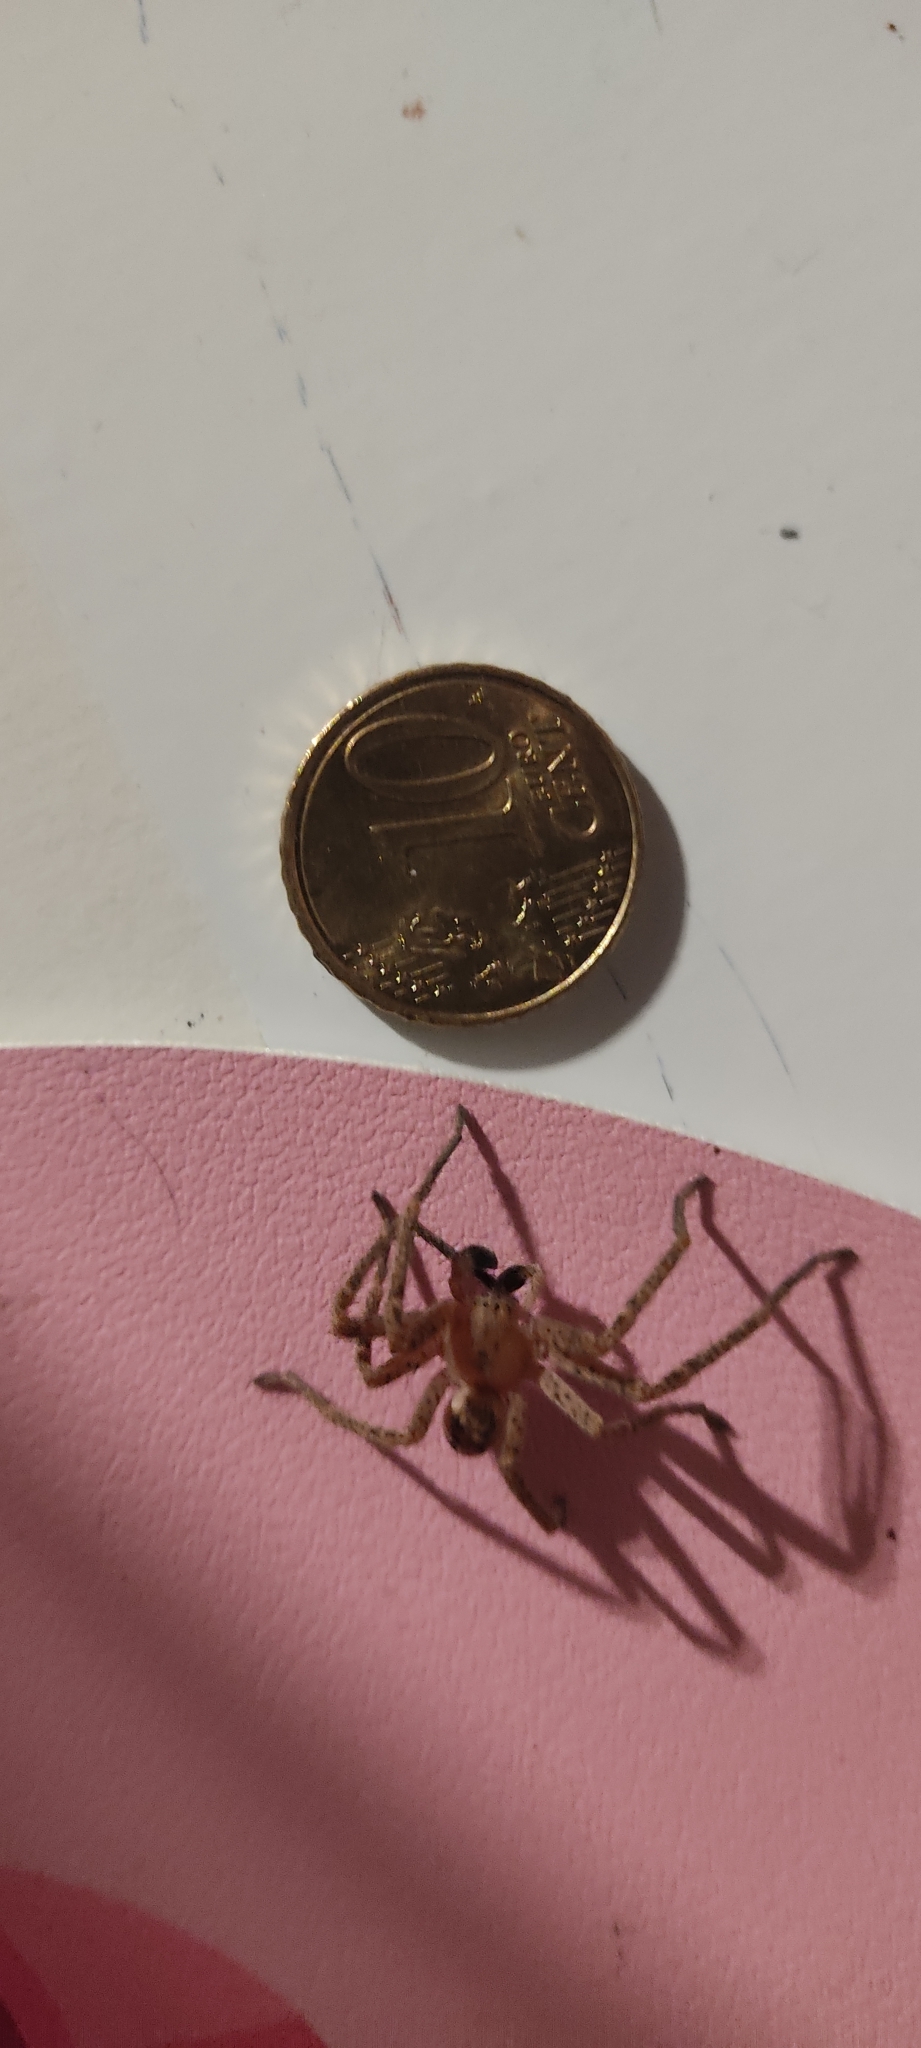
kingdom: Animalia
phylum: Arthropoda
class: Arachnida
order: Araneae
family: Sparassidae
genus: Olios
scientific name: Olios argelasius
